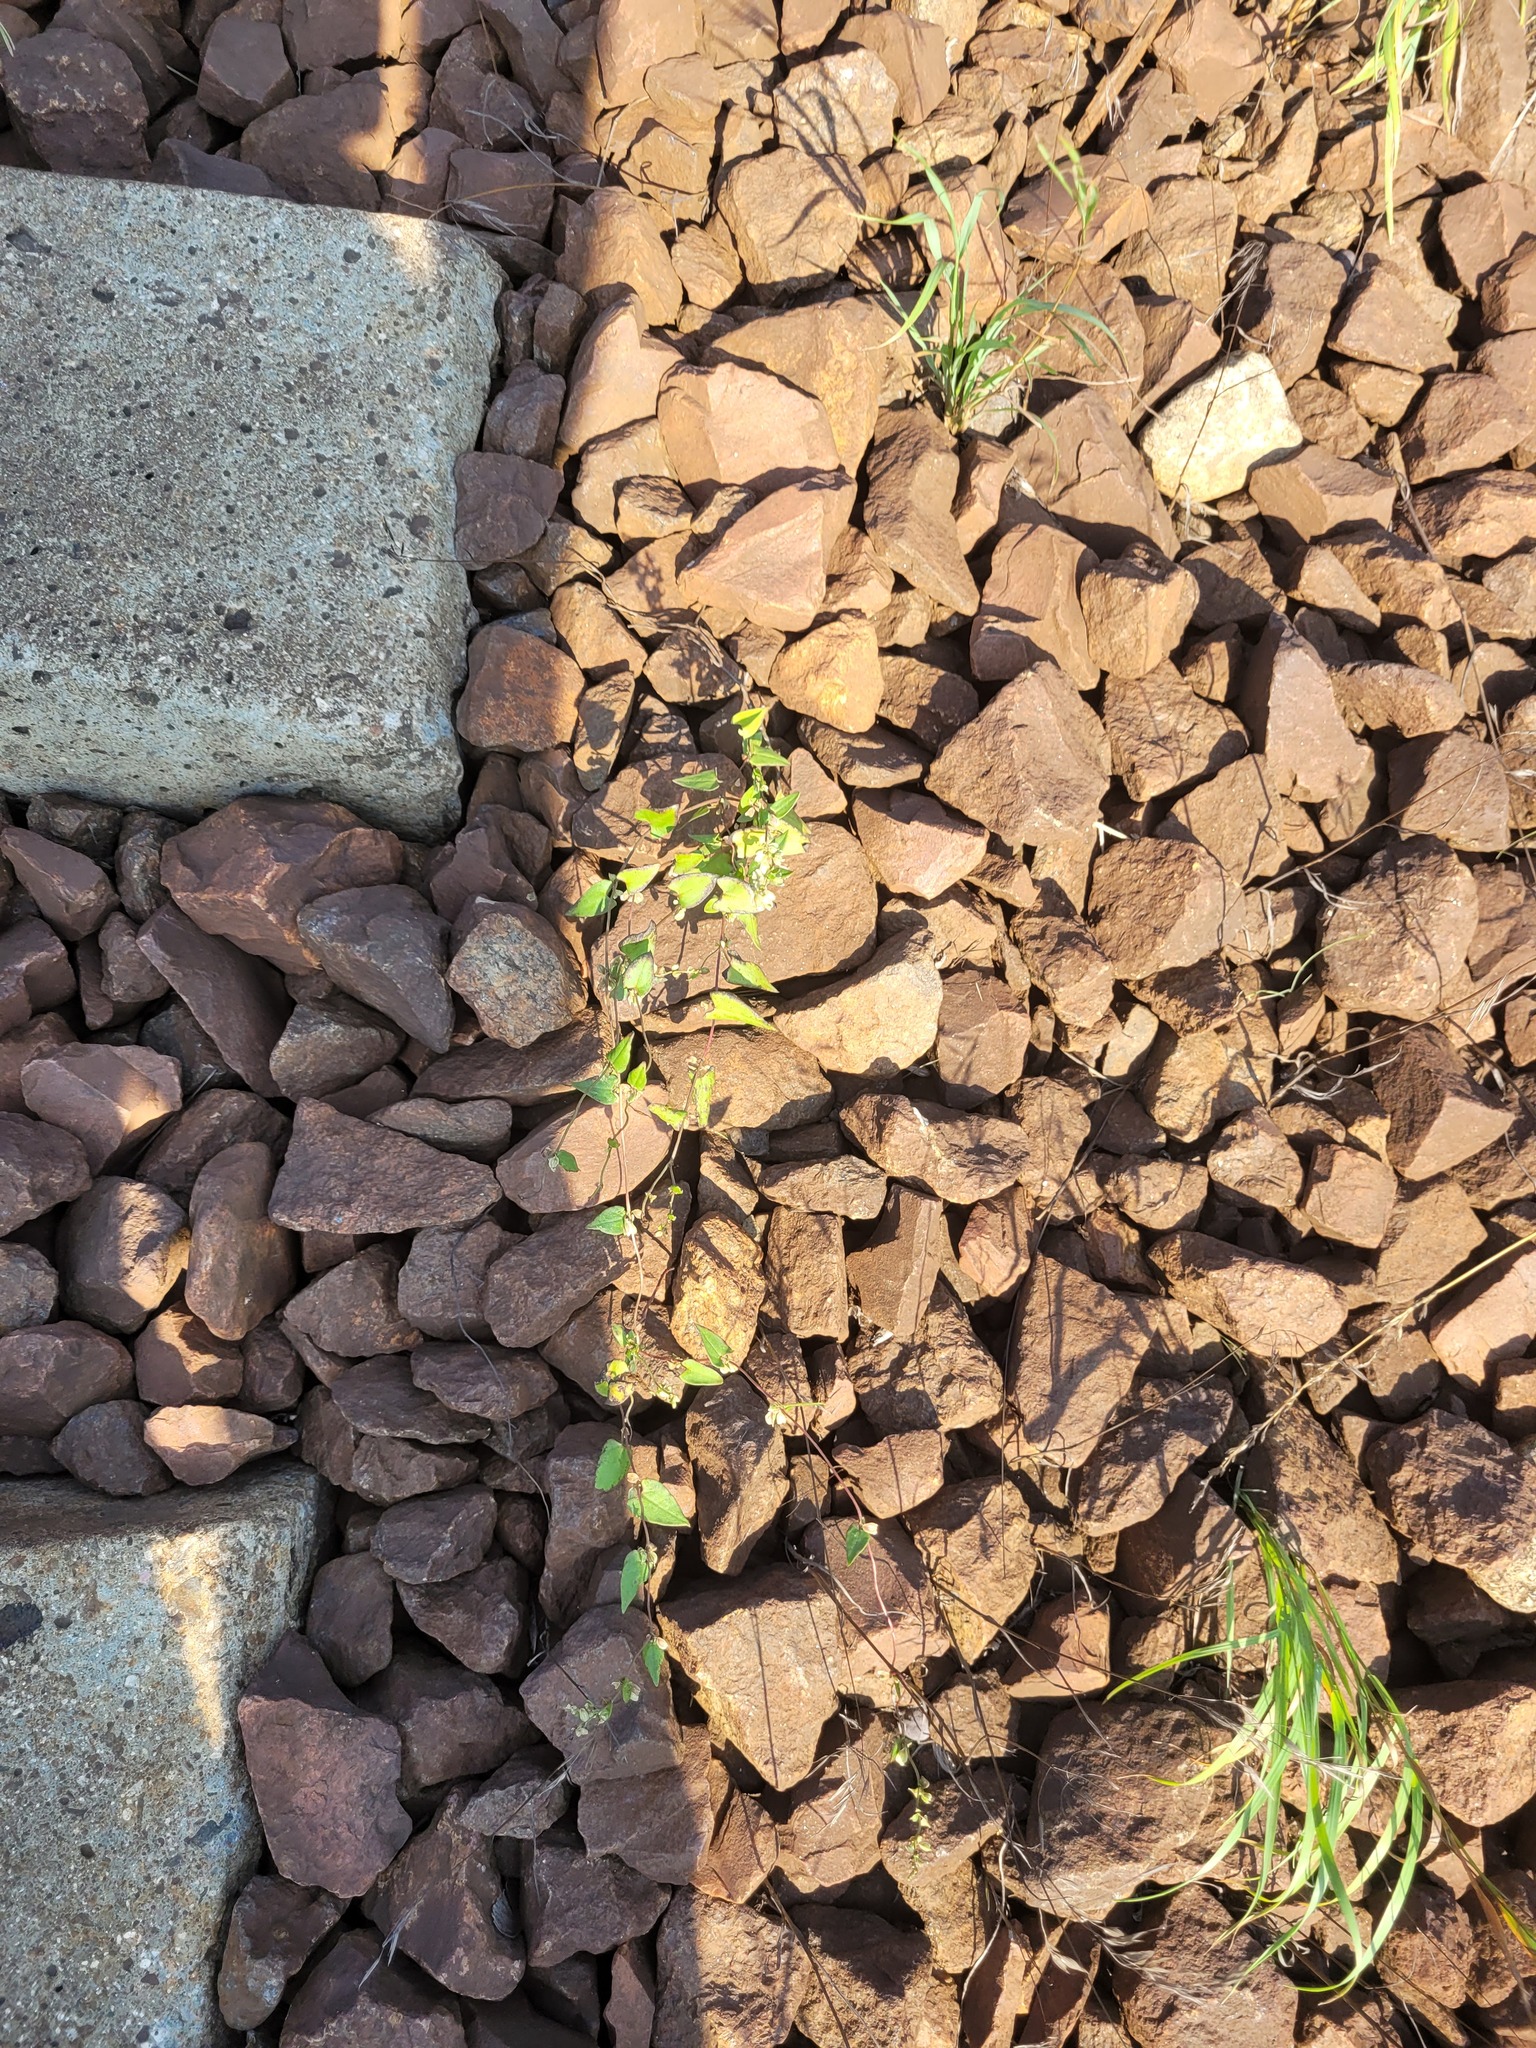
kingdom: Plantae
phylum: Tracheophyta
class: Magnoliopsida
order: Caryophyllales
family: Polygonaceae
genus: Fallopia
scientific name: Fallopia convolvulus
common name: Black bindweed
